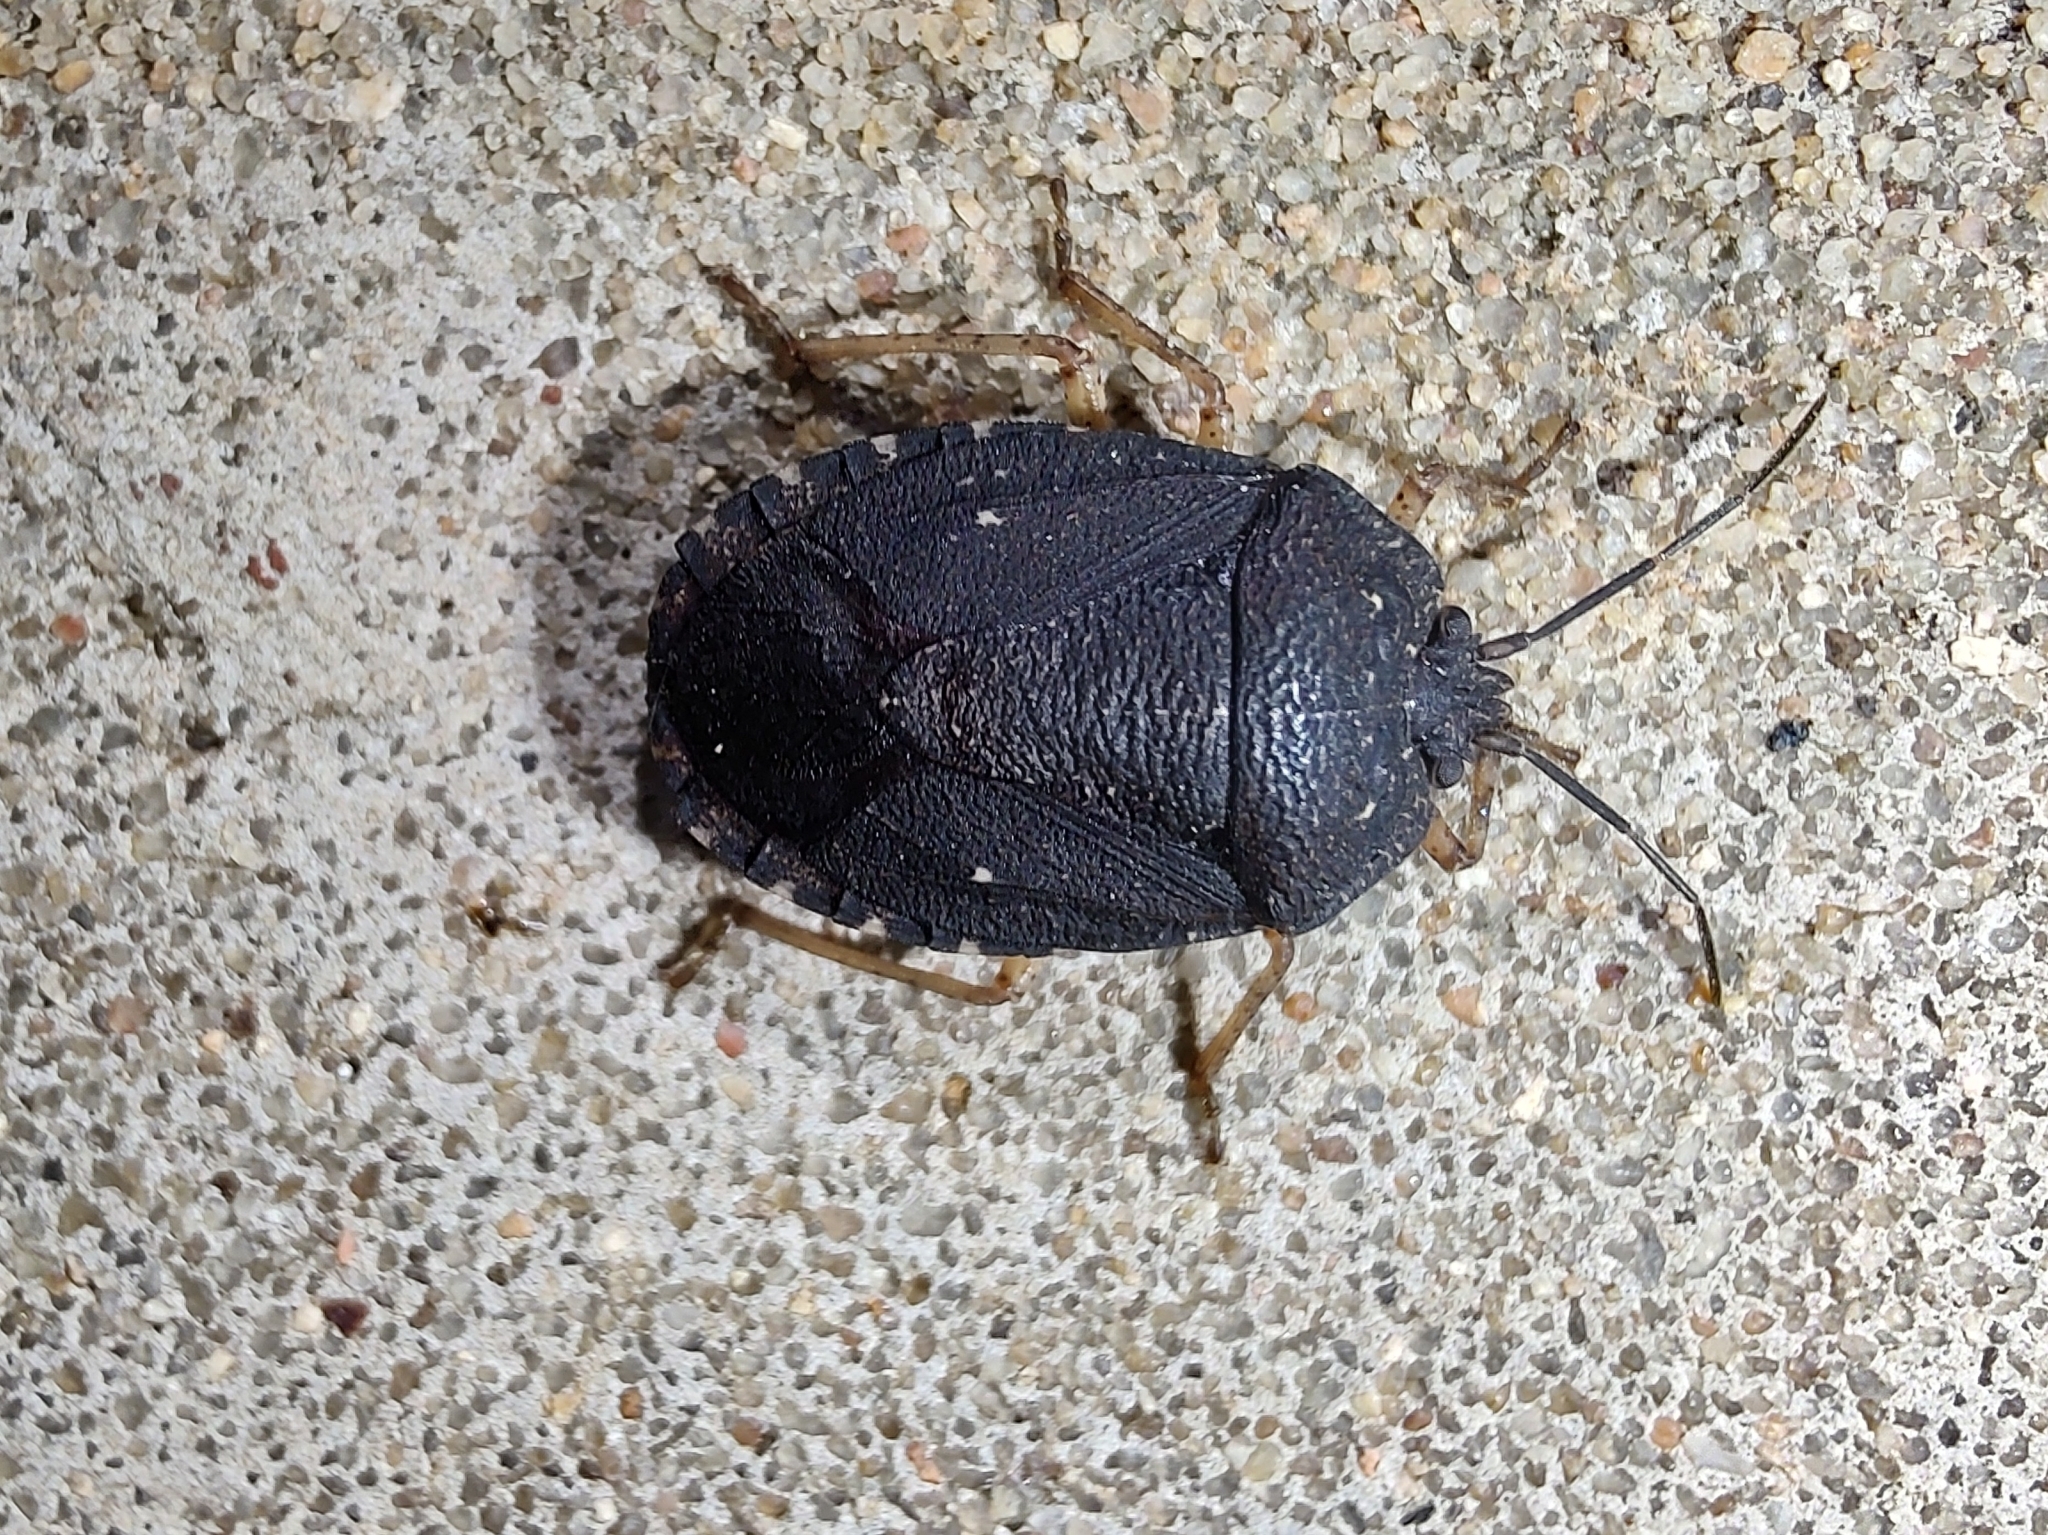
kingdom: Animalia
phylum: Arthropoda
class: Insecta
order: Hemiptera
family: Pentatomidae
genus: Macropygium
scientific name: Macropygium graziae
